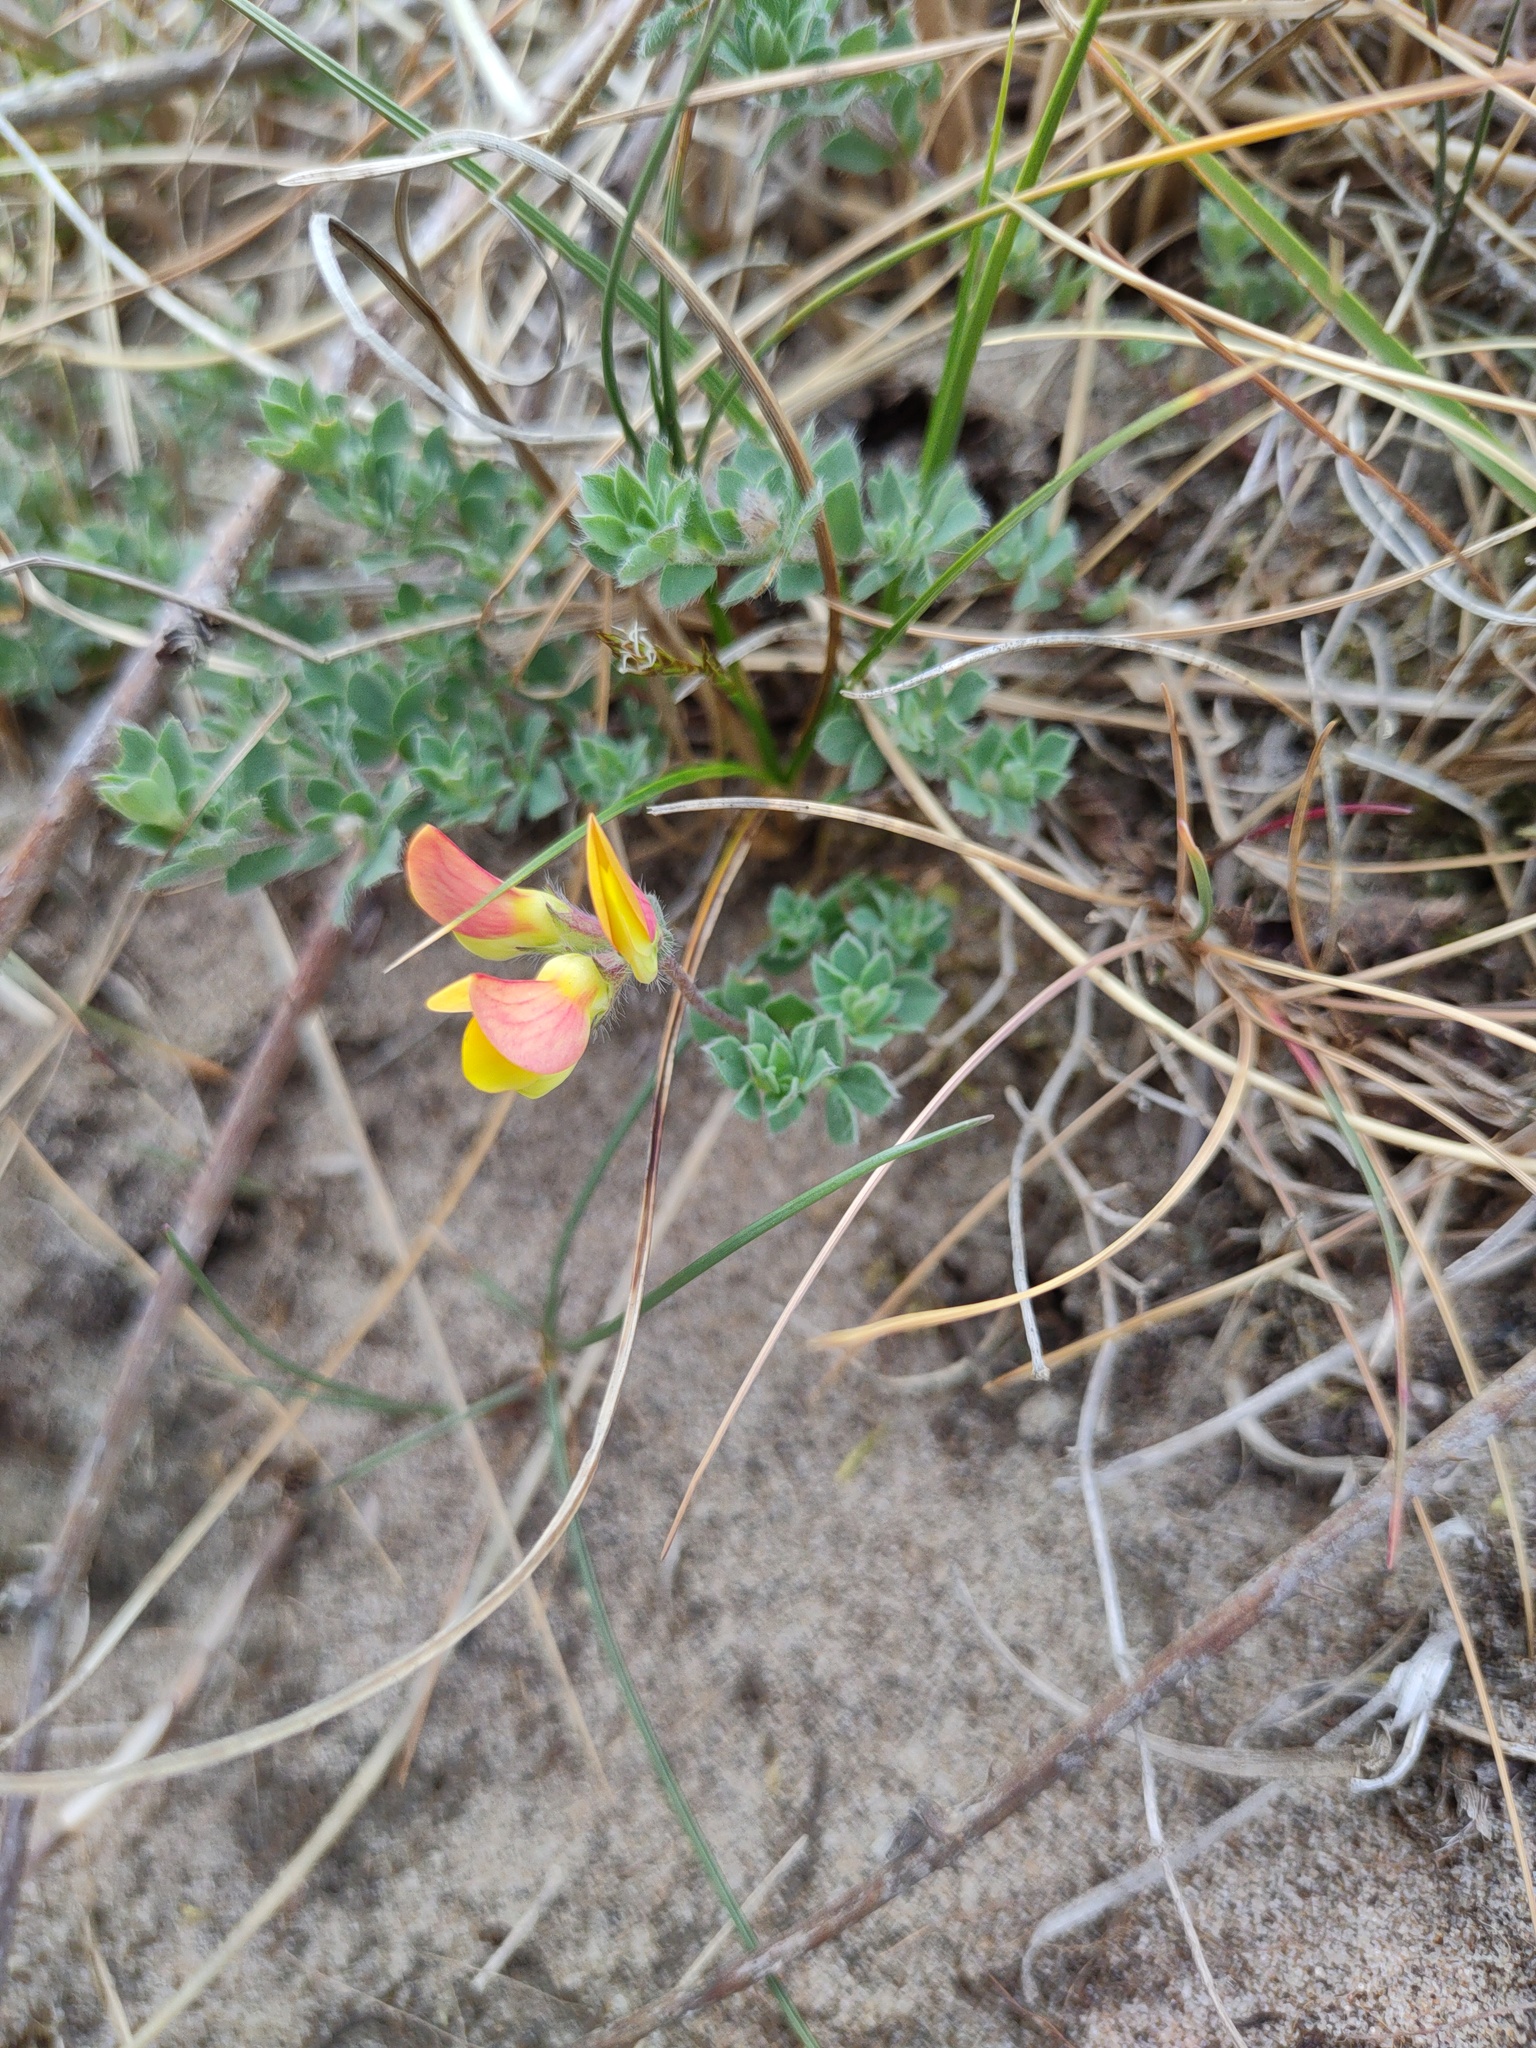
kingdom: Plantae
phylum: Tracheophyta
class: Magnoliopsida
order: Fabales
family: Fabaceae
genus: Lotus
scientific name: Lotus corniculatus
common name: Common bird's-foot-trefoil
